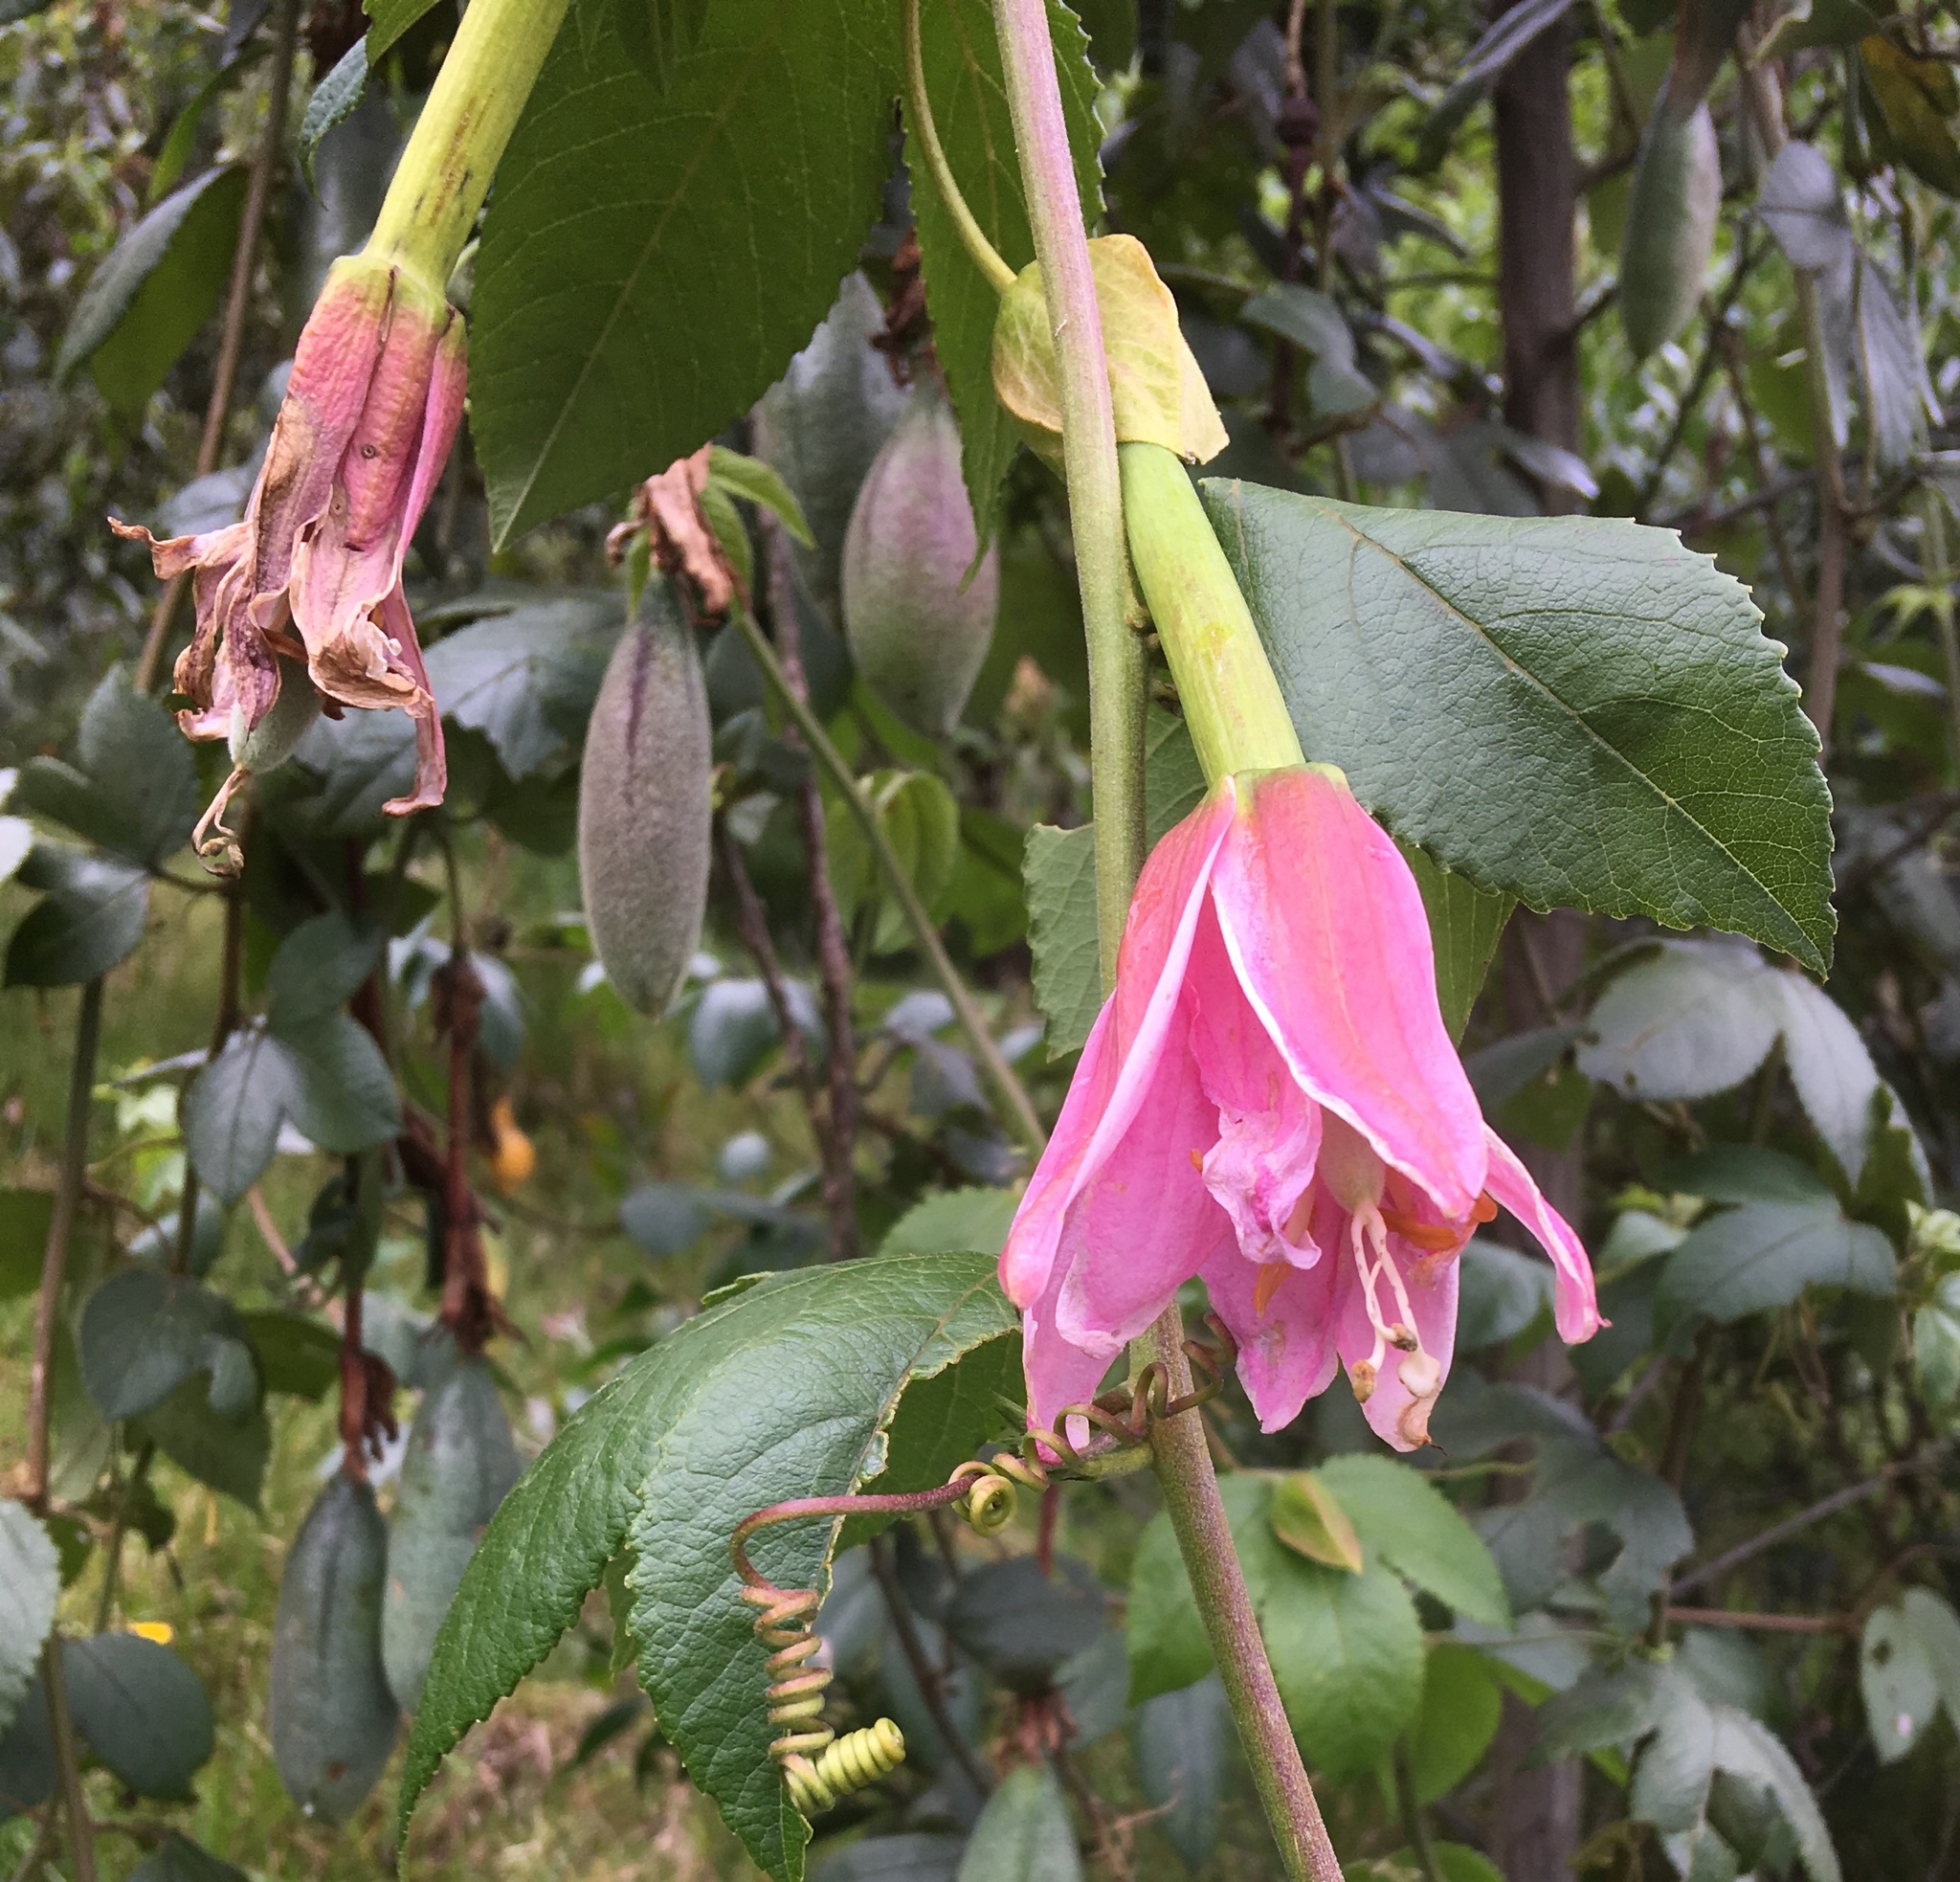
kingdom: Plantae
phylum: Tracheophyta
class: Magnoliopsida
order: Malpighiales
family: Passifloraceae
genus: Passiflora
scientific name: Passiflora tarminiana
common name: Banana poka
